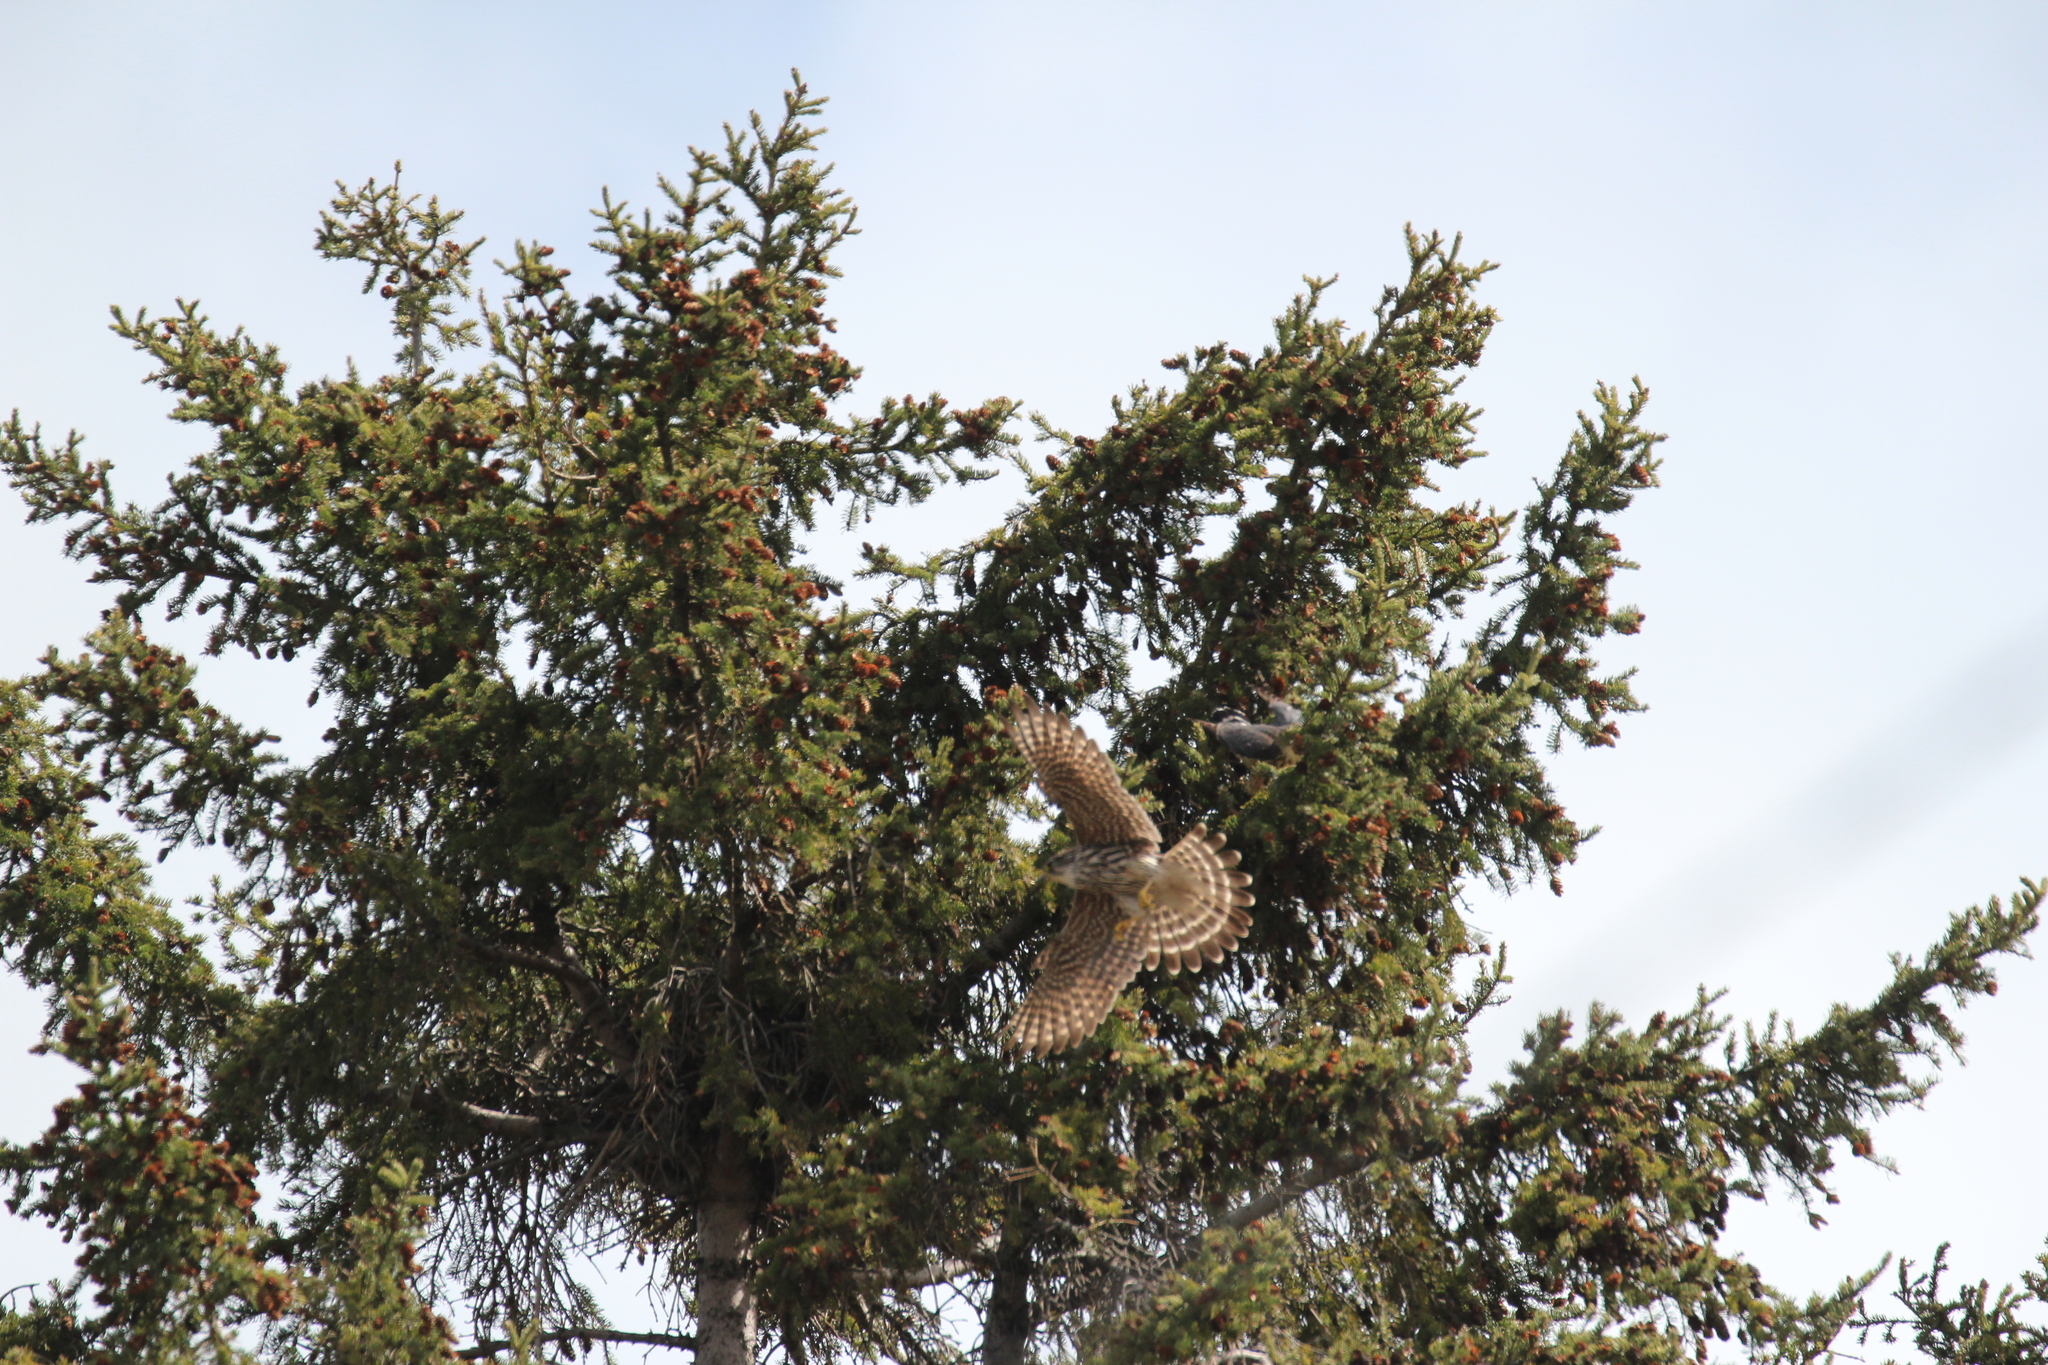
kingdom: Animalia
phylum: Chordata
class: Aves
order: Falconiformes
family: Falconidae
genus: Falco
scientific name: Falco columbarius
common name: Merlin
